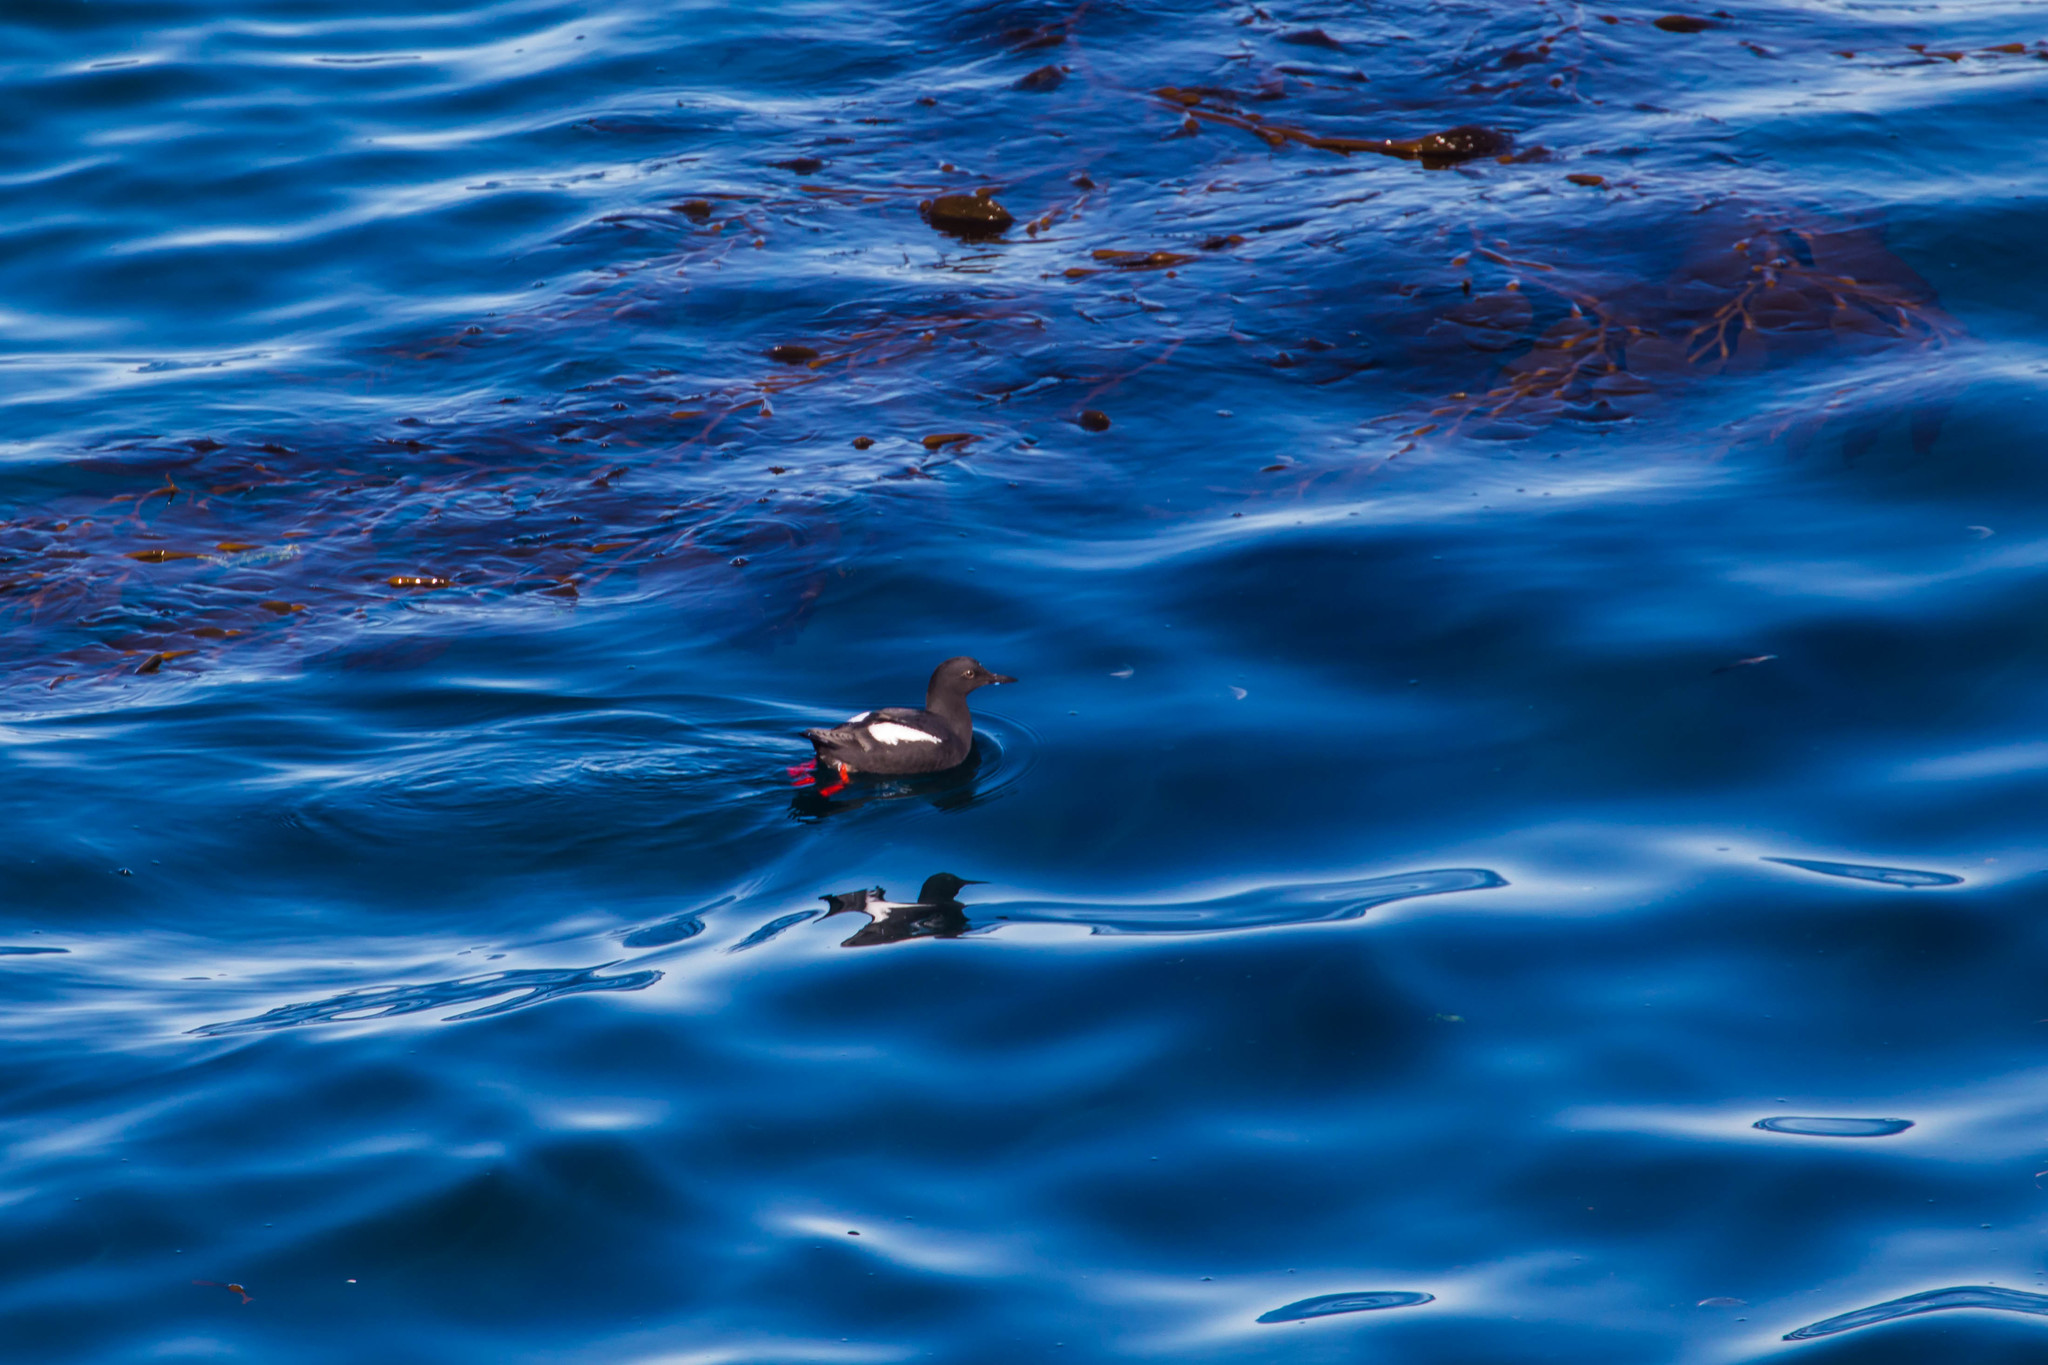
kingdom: Animalia
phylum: Chordata
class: Aves
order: Charadriiformes
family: Alcidae
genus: Cepphus
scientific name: Cepphus columba
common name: Pigeon guillemot
